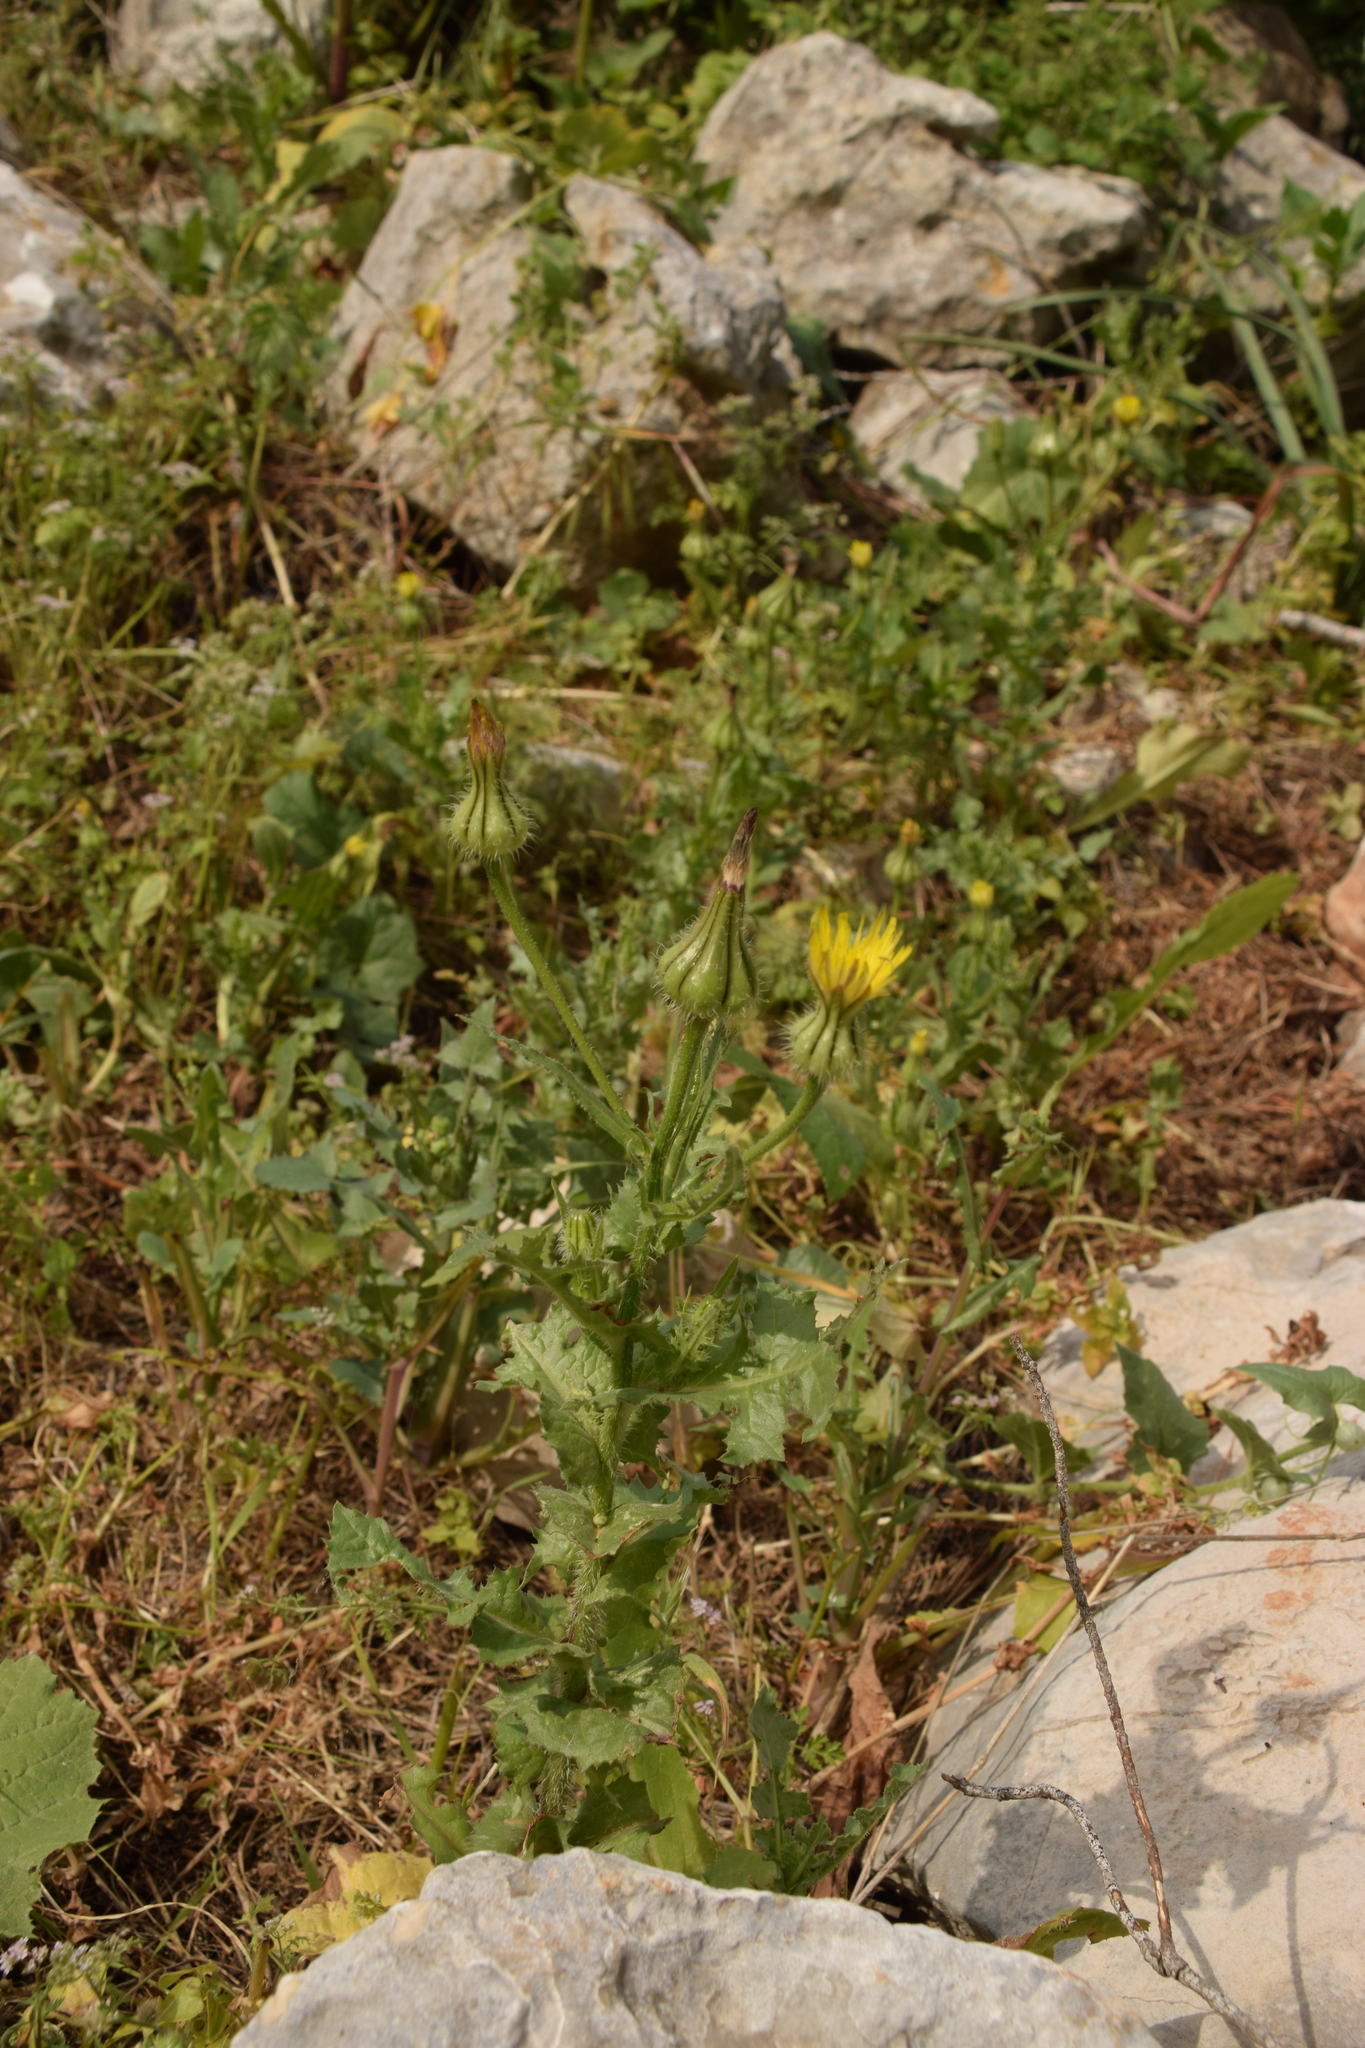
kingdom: Plantae
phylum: Tracheophyta
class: Magnoliopsida
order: Asterales
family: Asteraceae
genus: Urospermum
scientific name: Urospermum picroides
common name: False hawkbit
